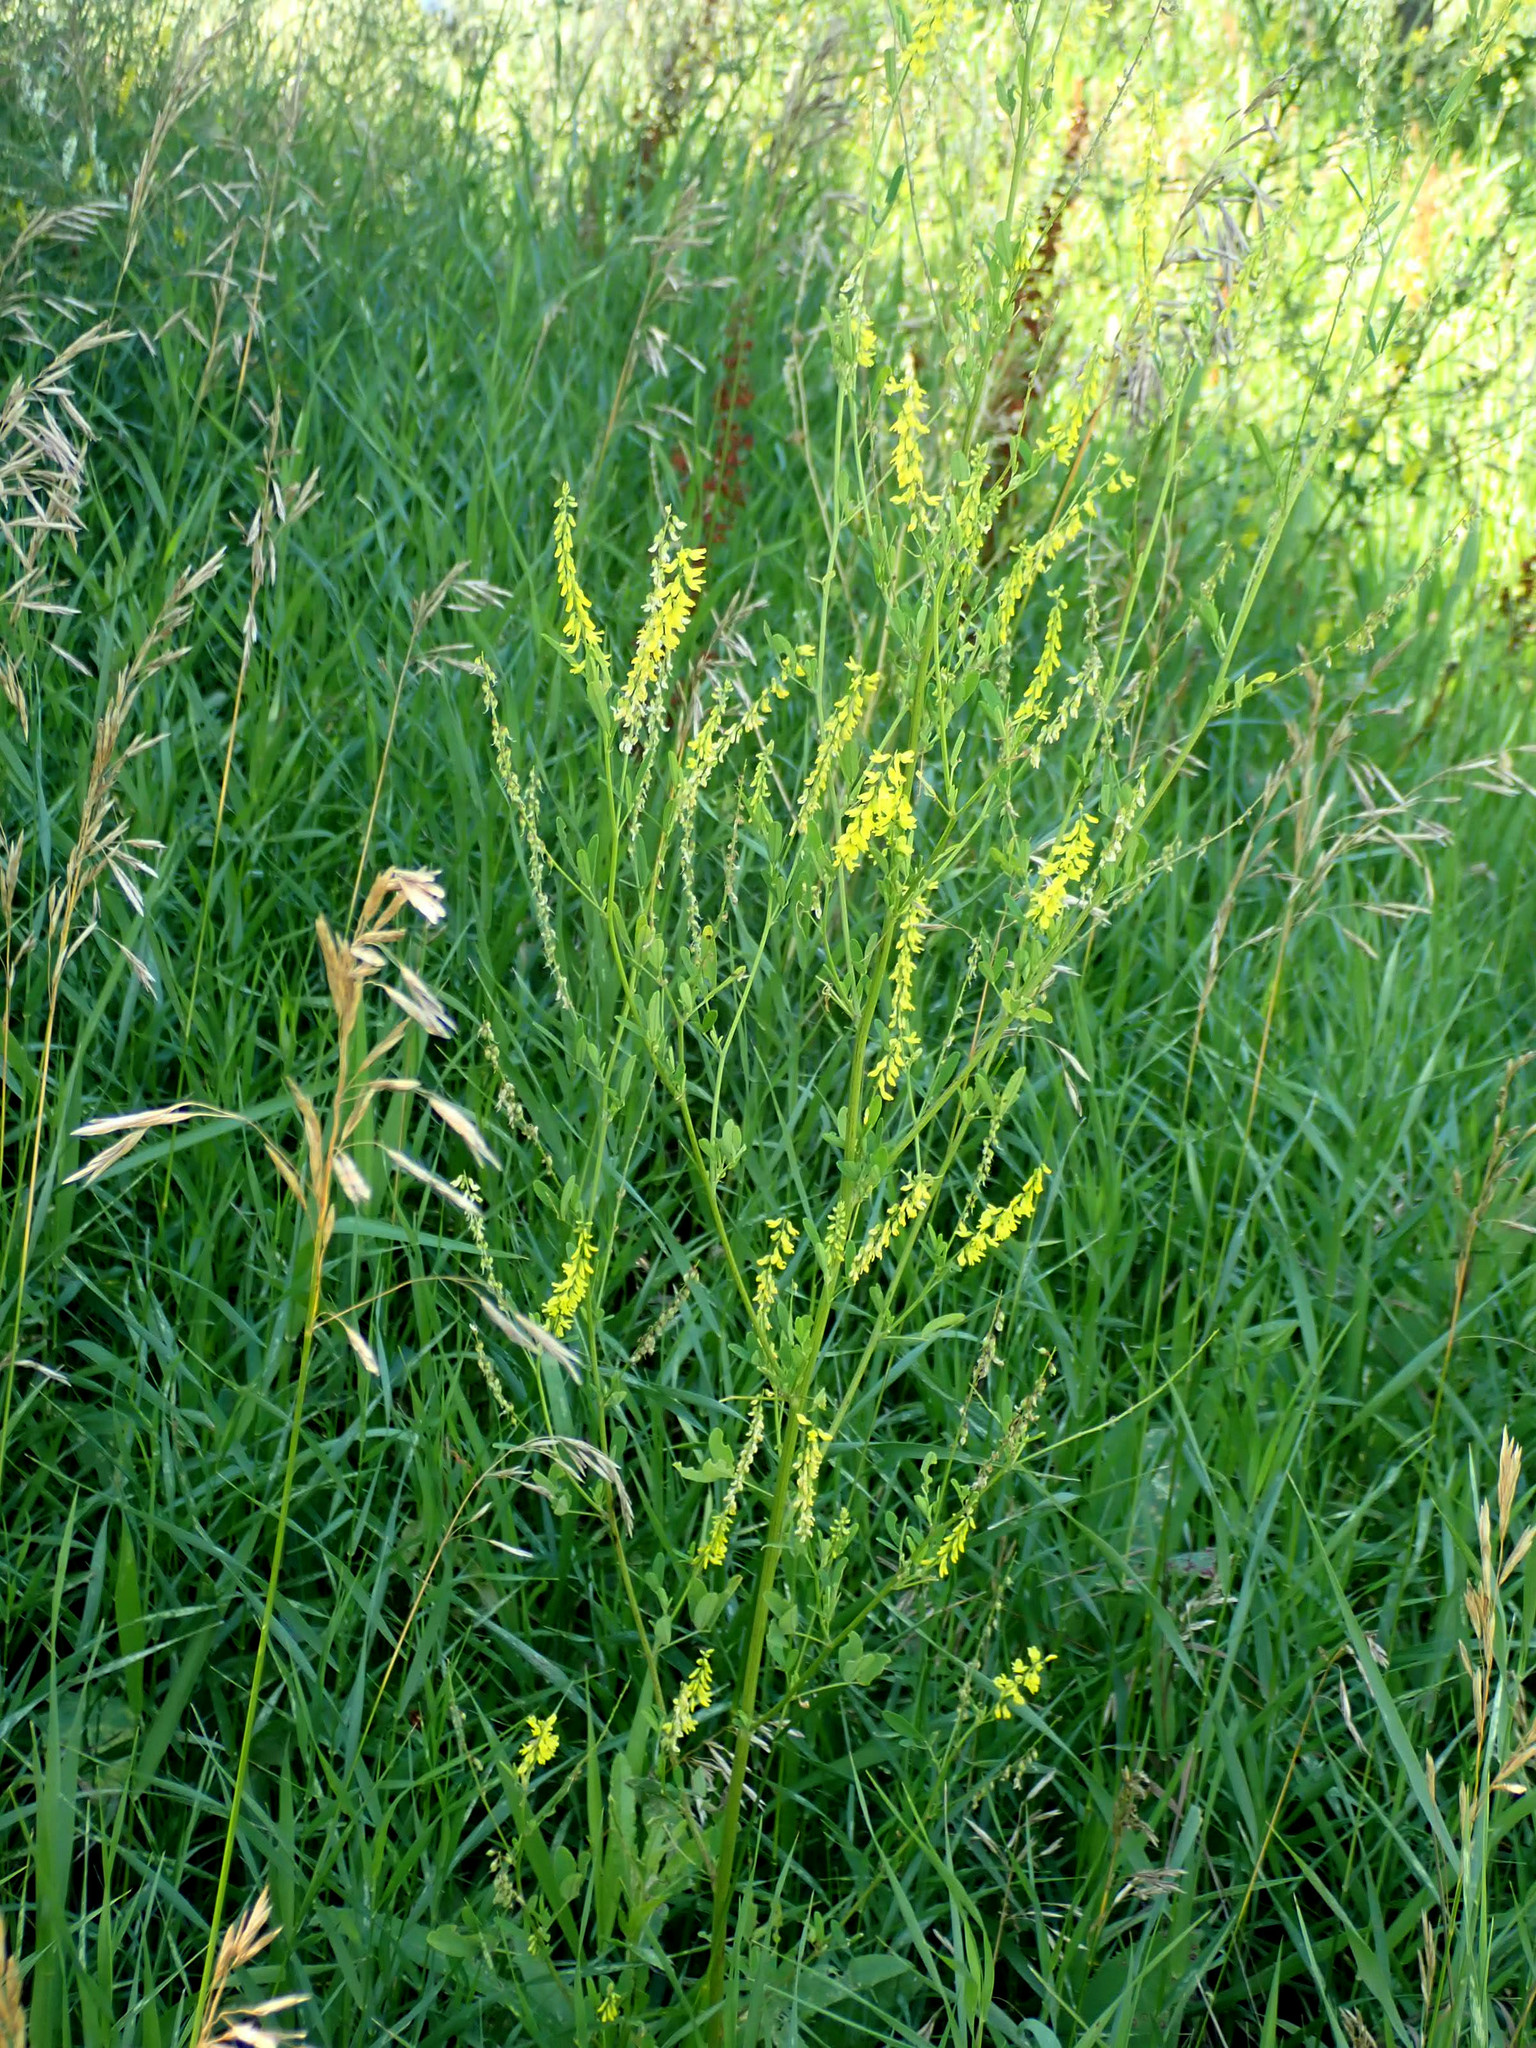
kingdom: Plantae
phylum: Tracheophyta
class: Magnoliopsida
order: Fabales
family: Fabaceae
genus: Melilotus
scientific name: Melilotus officinalis
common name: Sweetclover
